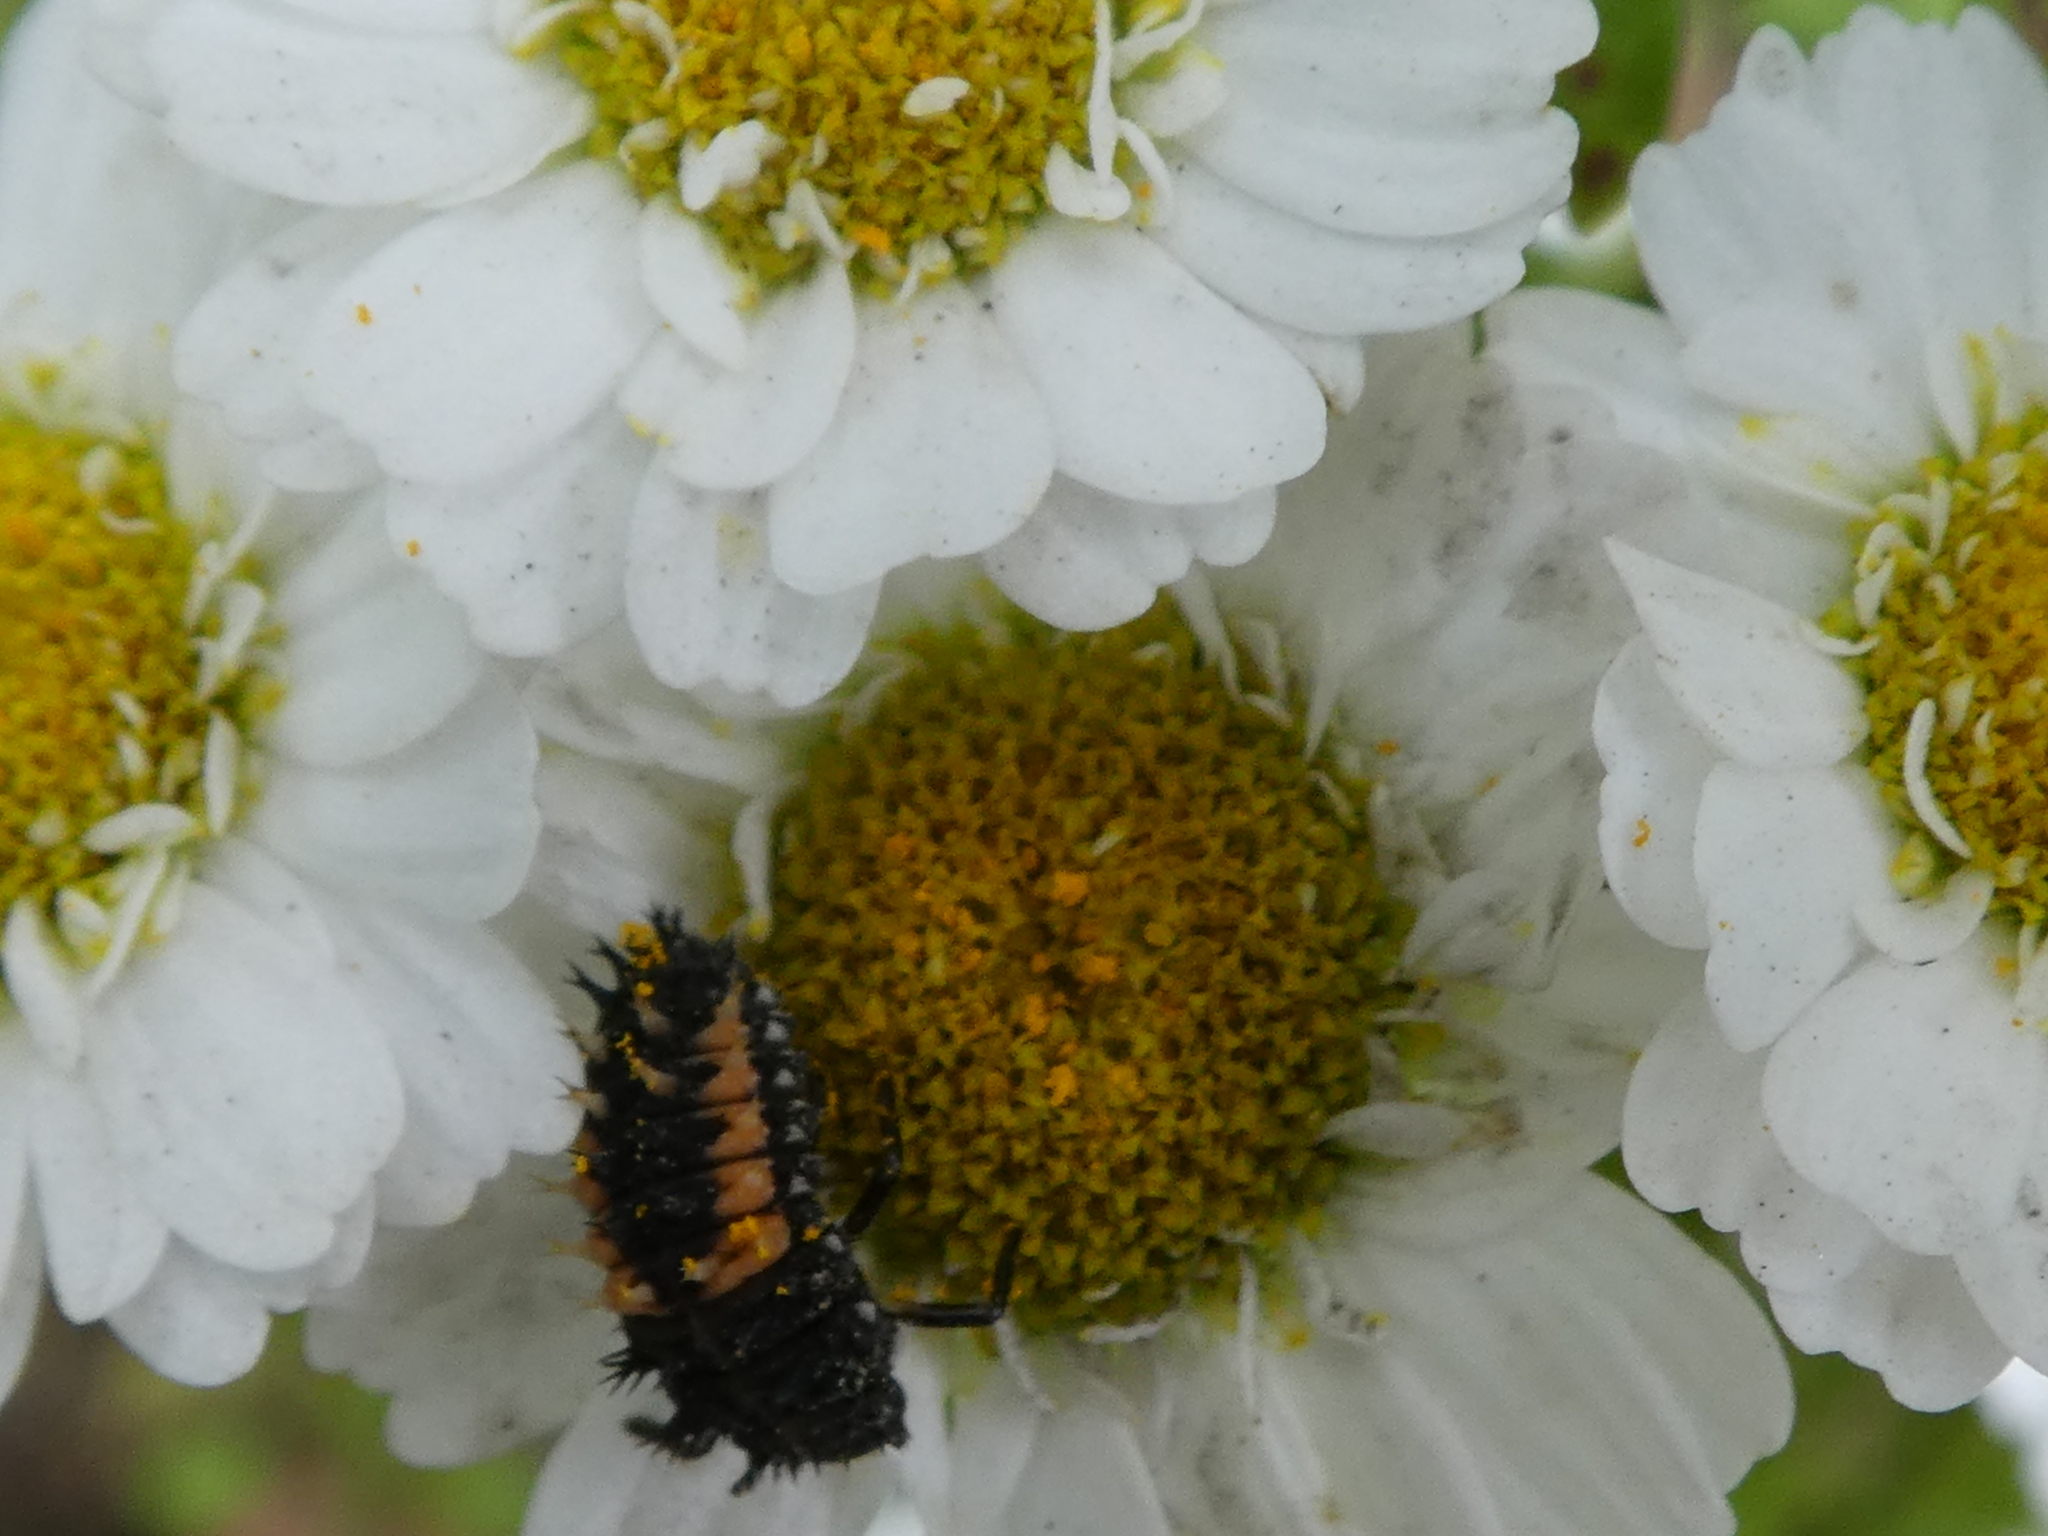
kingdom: Animalia
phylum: Arthropoda
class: Insecta
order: Coleoptera
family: Coccinellidae
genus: Harmonia
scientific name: Harmonia axyridis
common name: Harlequin ladybird
